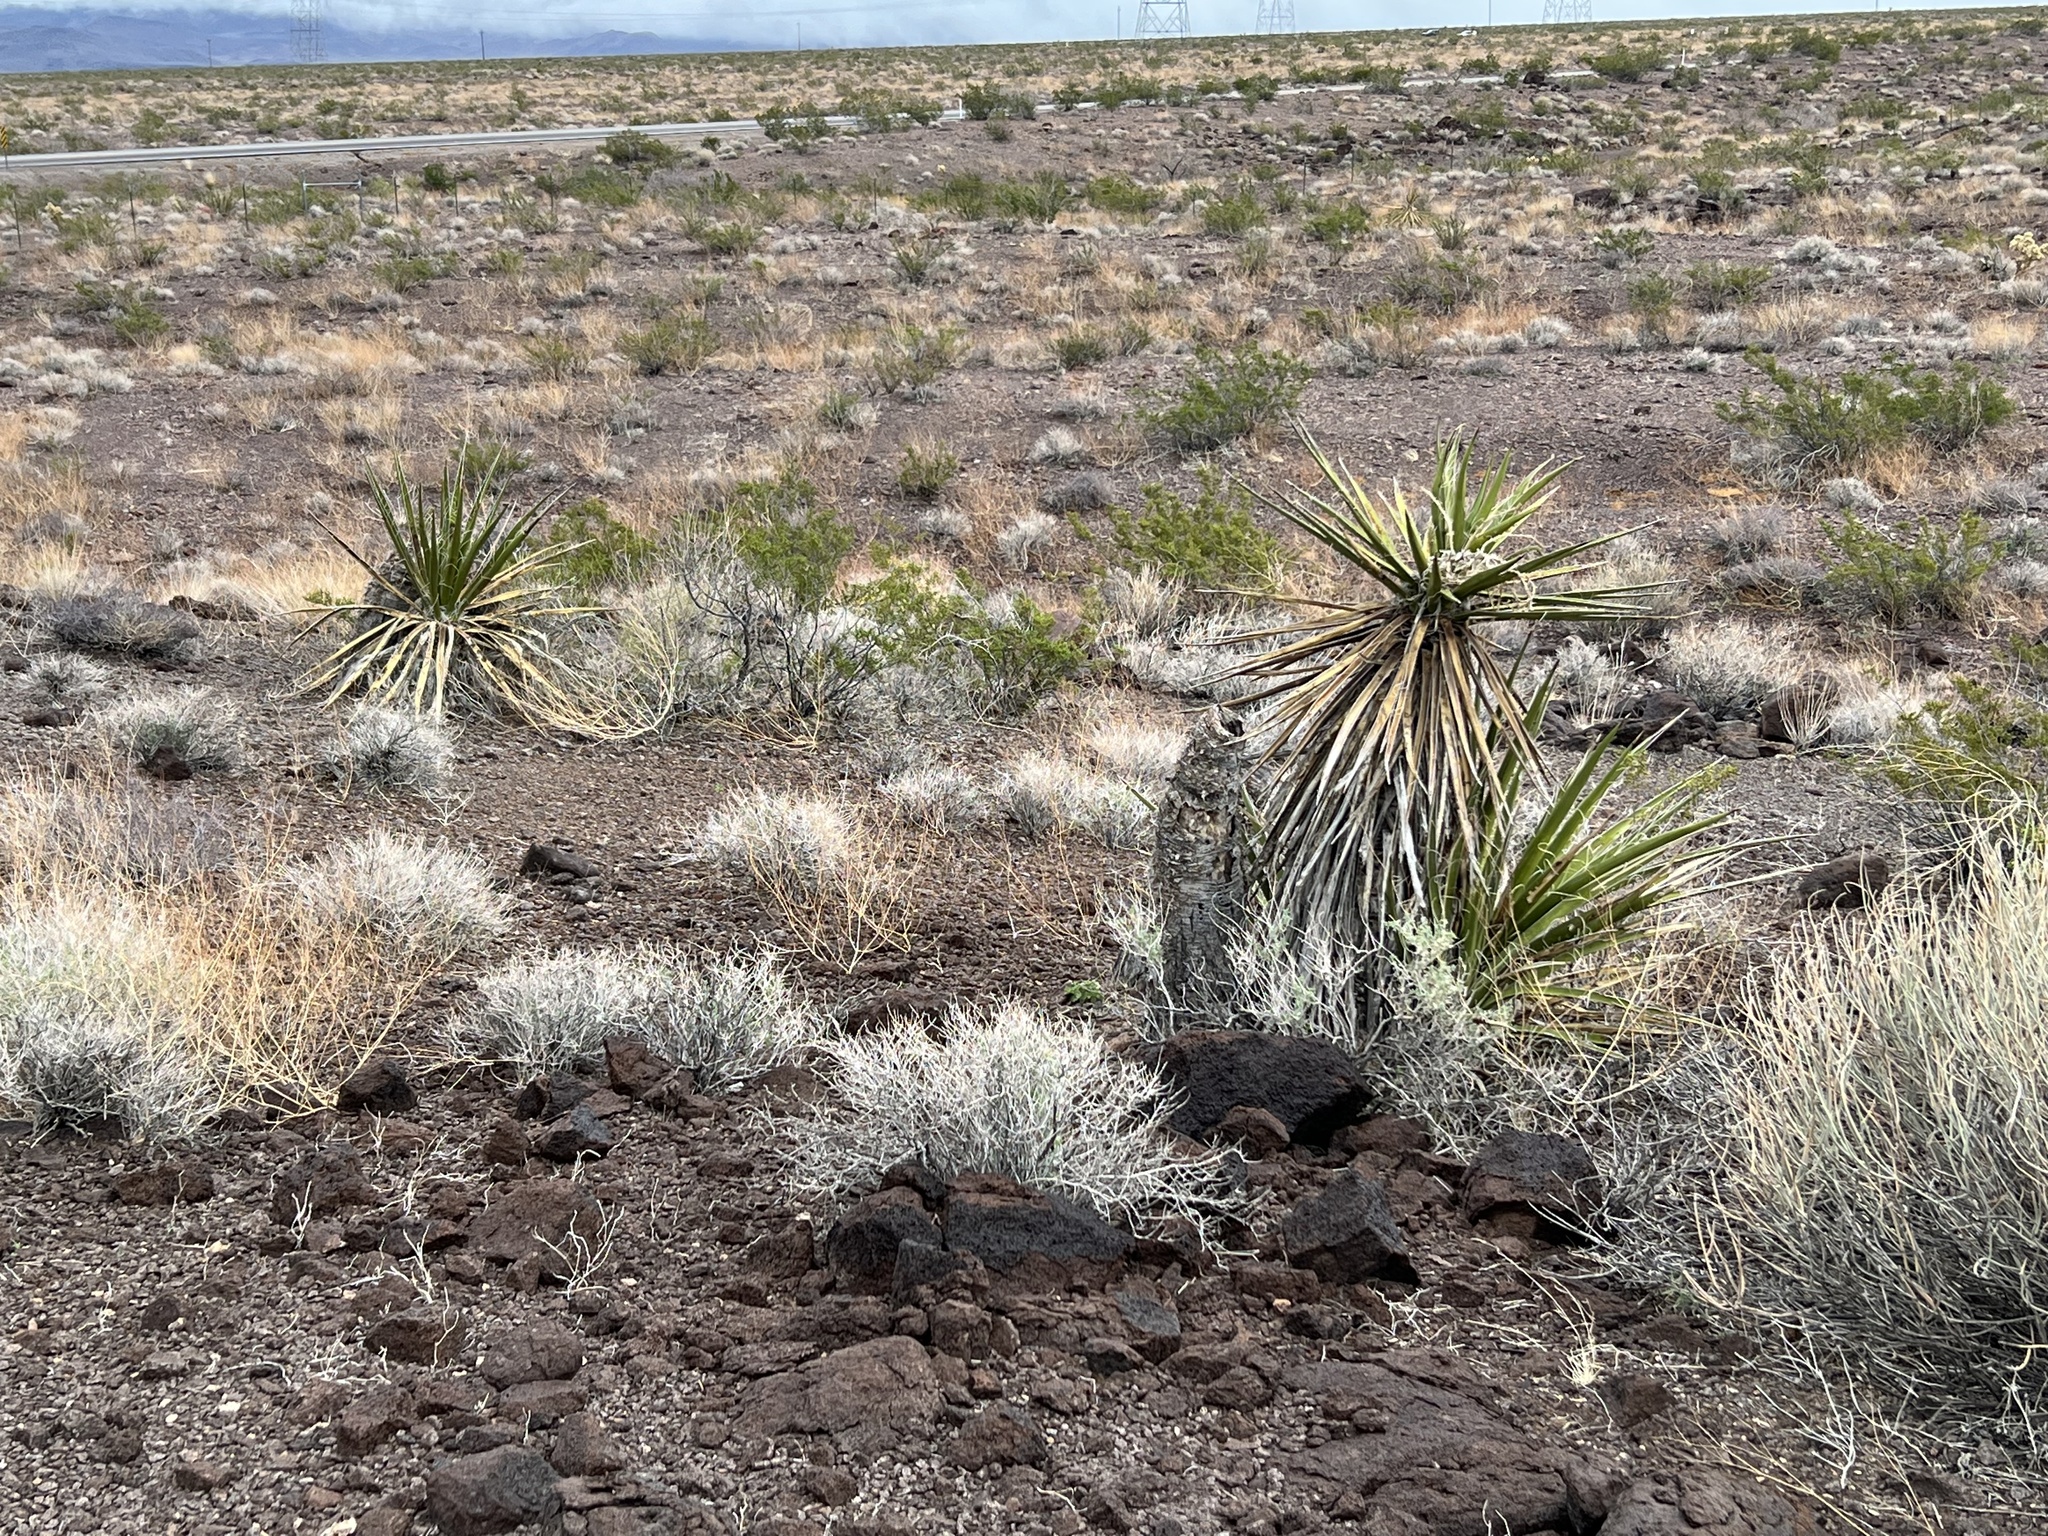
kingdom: Plantae
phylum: Tracheophyta
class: Liliopsida
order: Asparagales
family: Asparagaceae
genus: Yucca
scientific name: Yucca schidigera
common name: Mojave yucca
